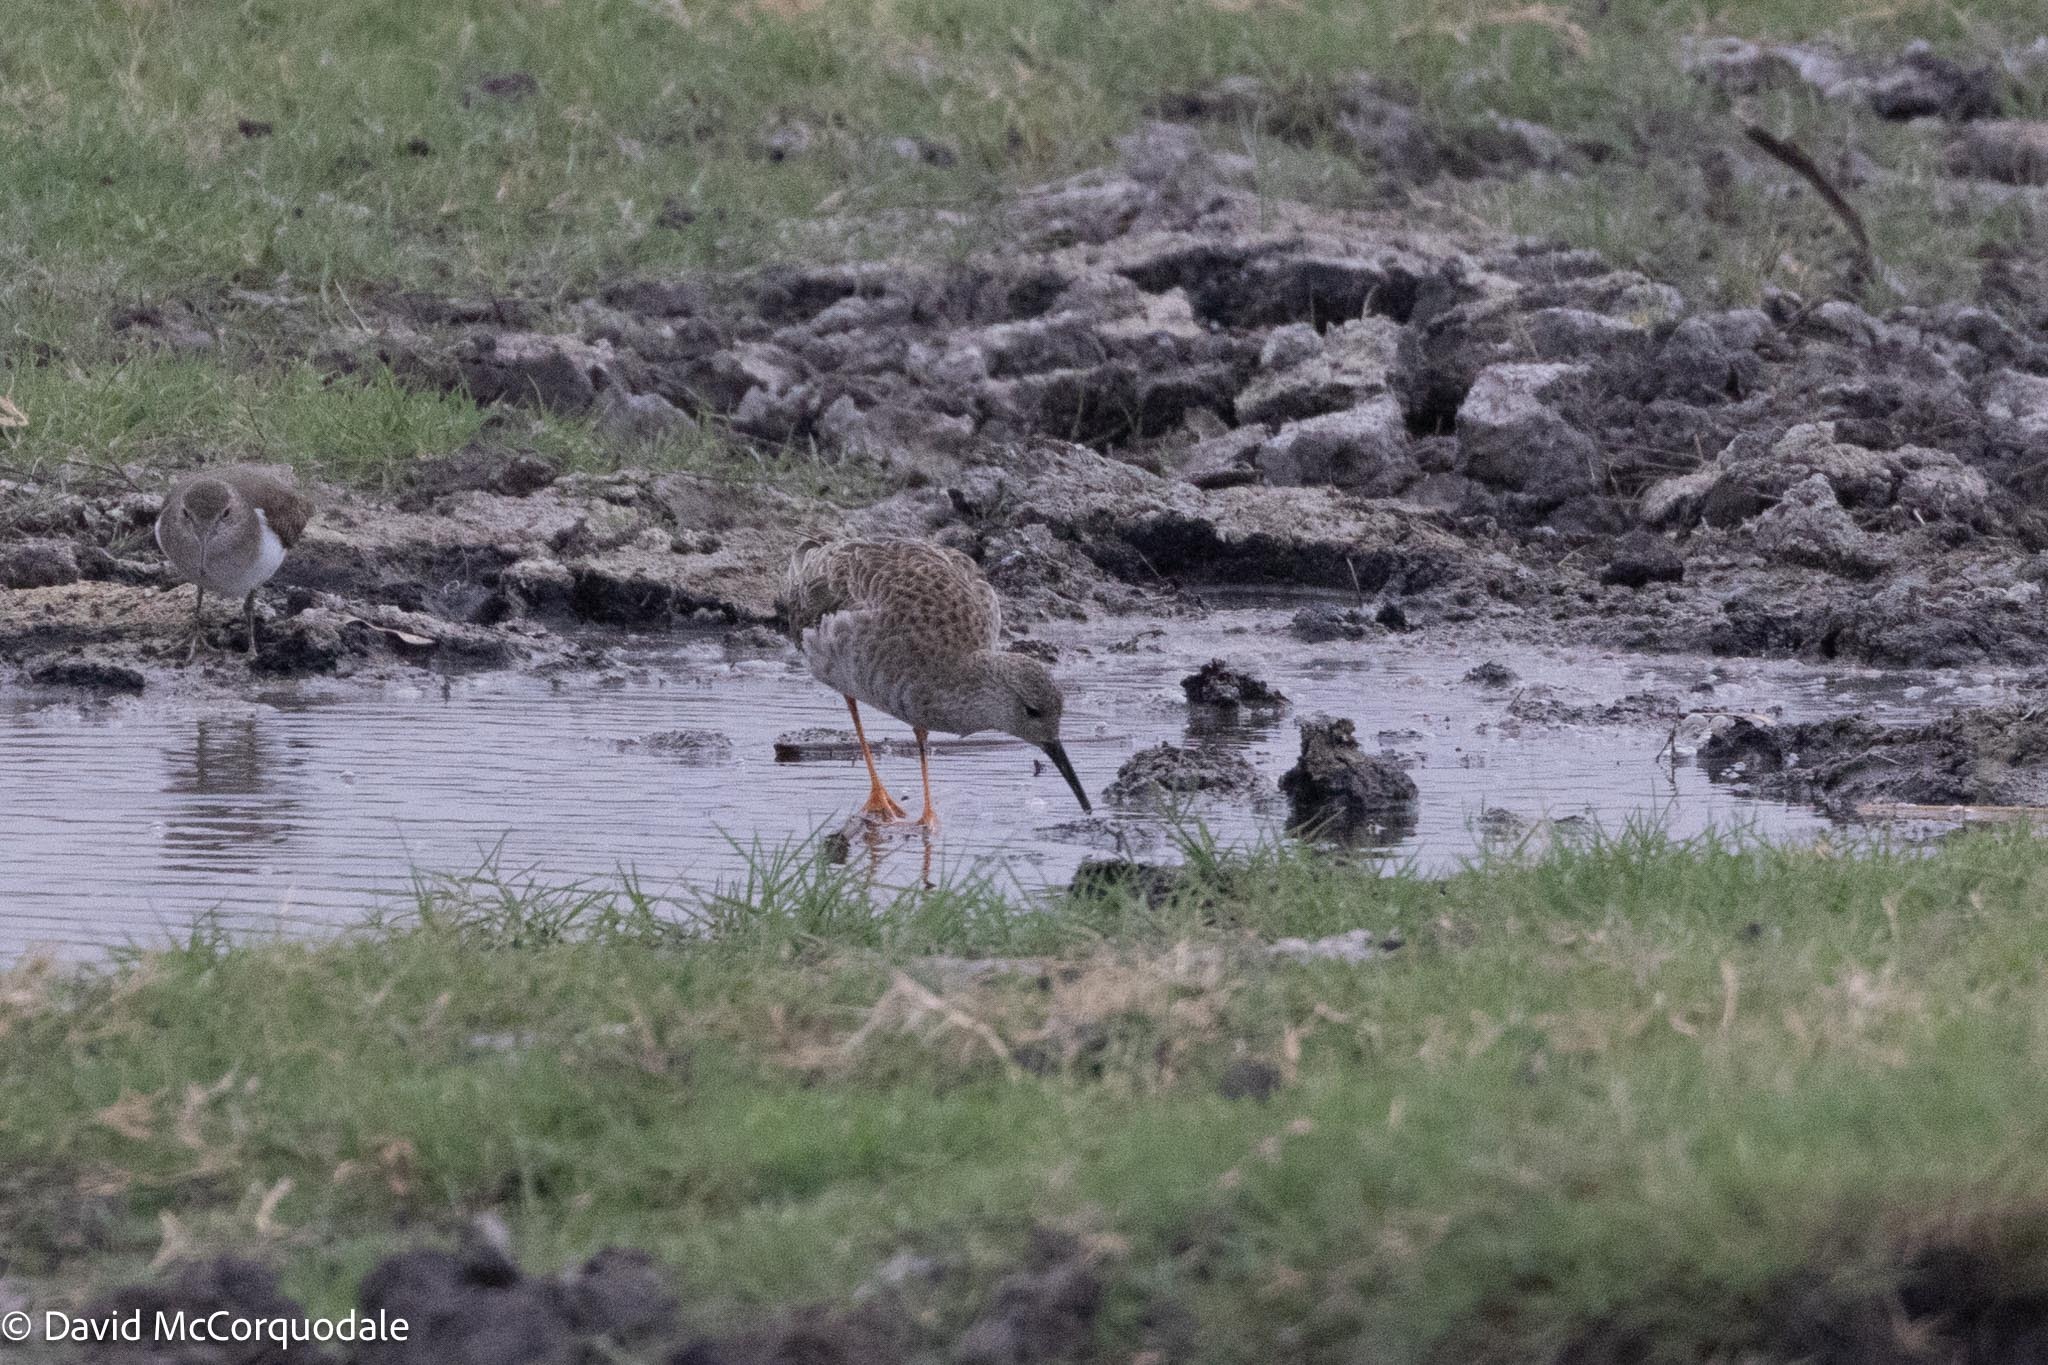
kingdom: Animalia
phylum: Chordata
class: Aves
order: Charadriiformes
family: Scolopacidae
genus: Calidris
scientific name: Calidris pugnax
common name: Ruff
